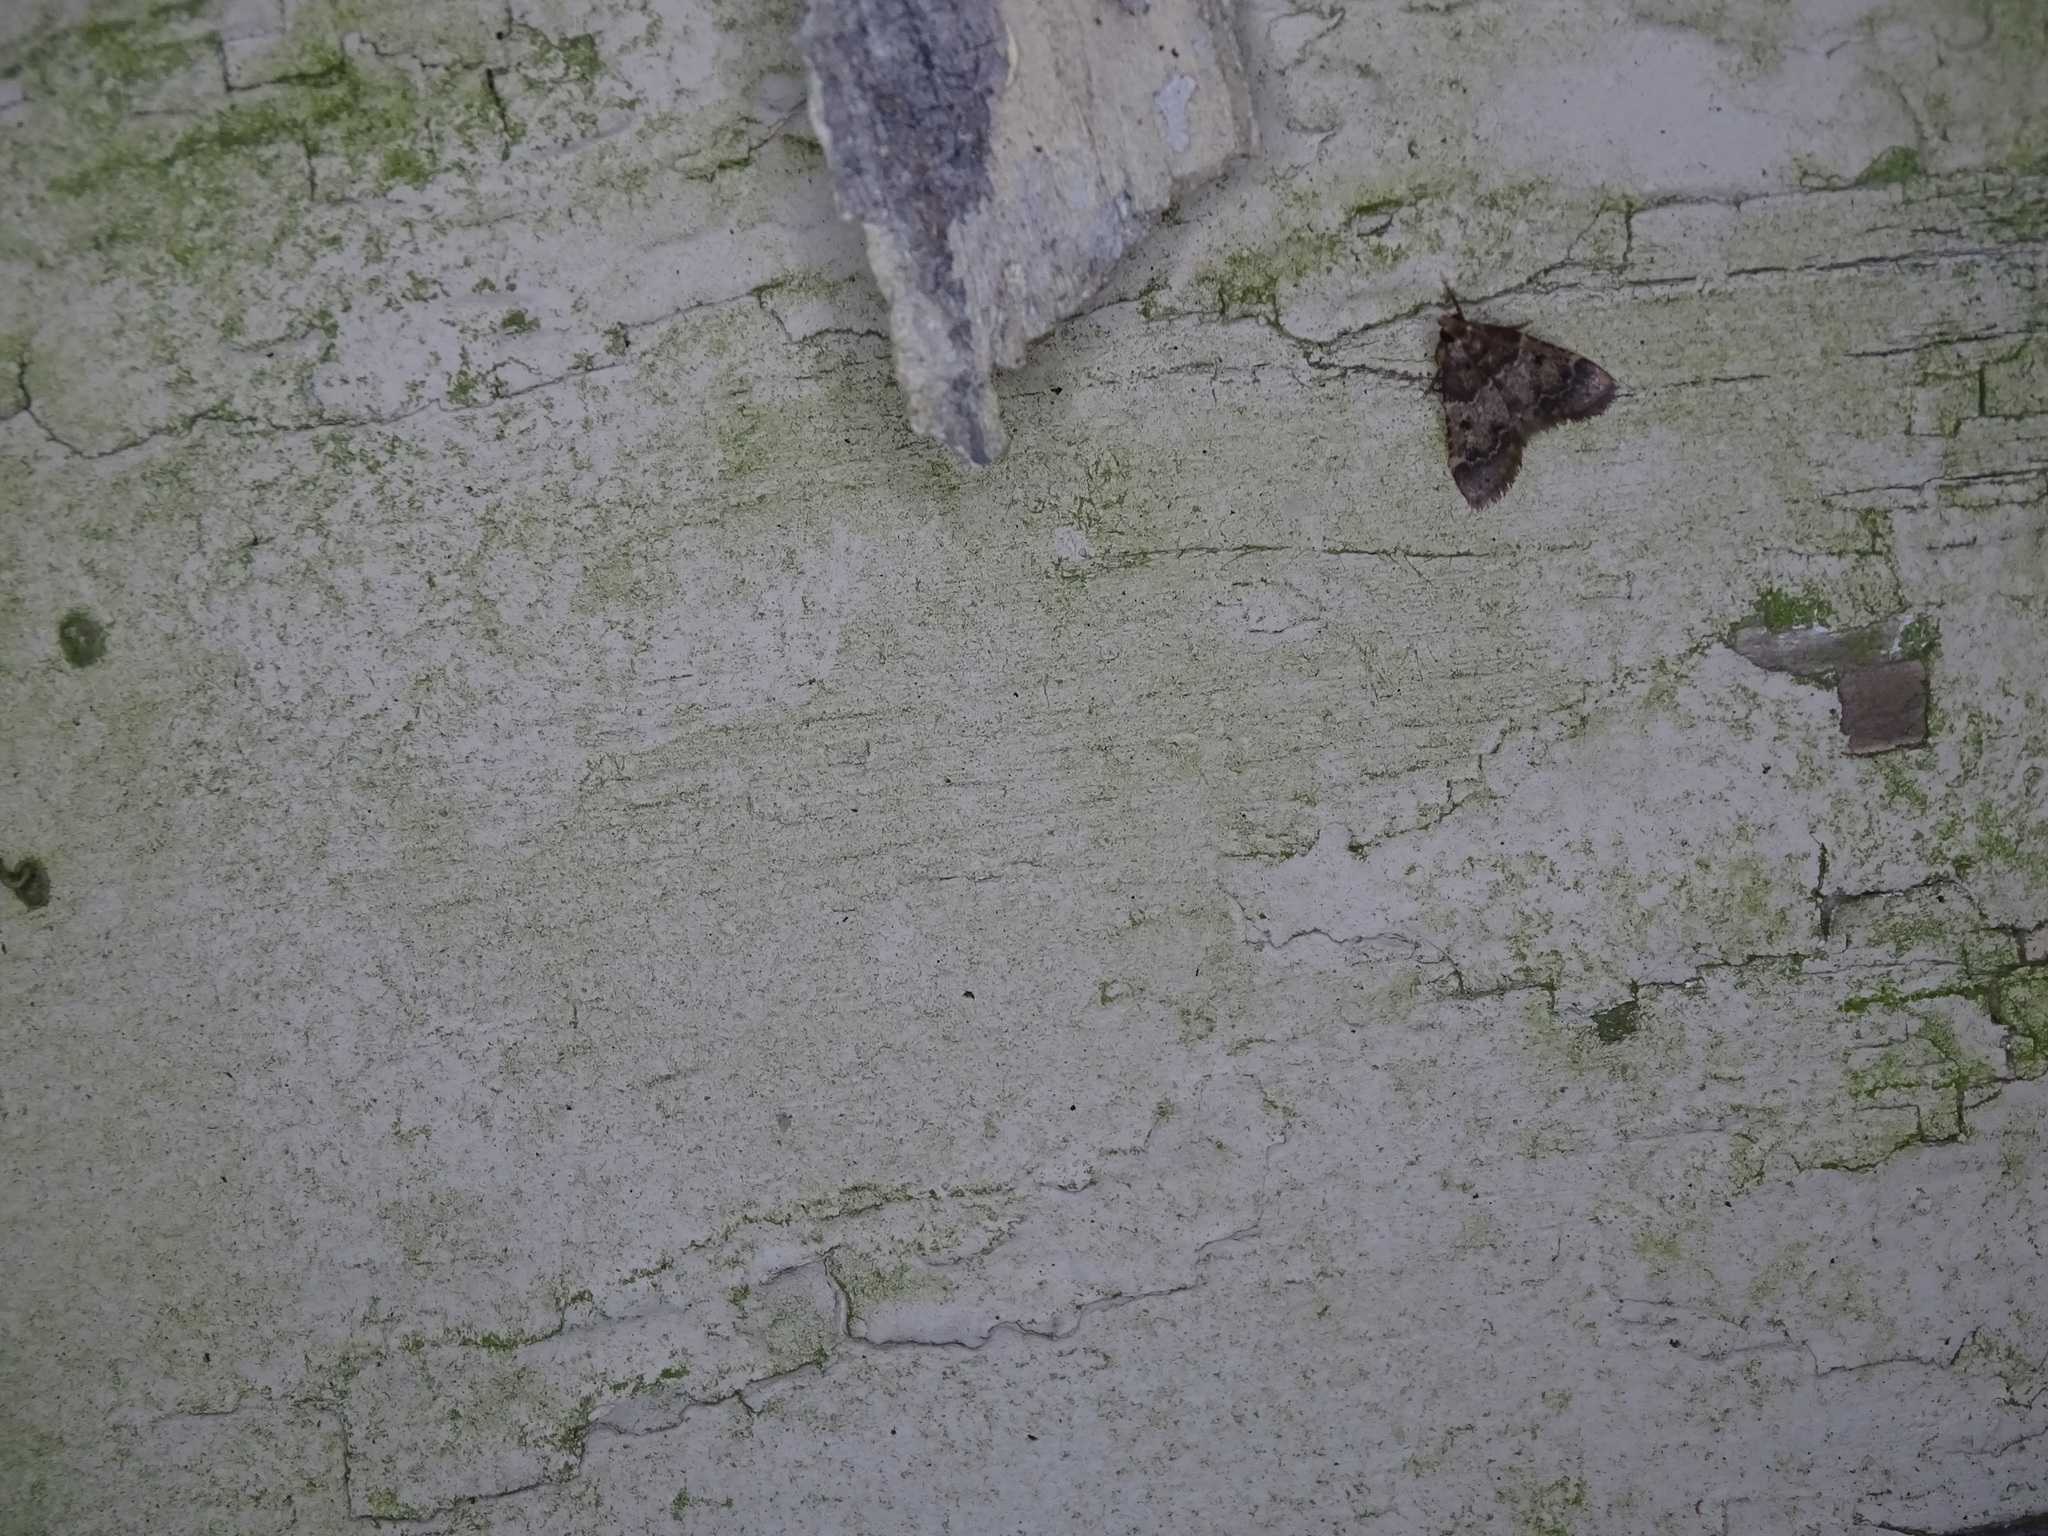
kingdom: Animalia
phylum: Arthropoda
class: Insecta
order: Lepidoptera
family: Pyralidae
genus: Pyralis
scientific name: Pyralis manihotalis
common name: Moth
